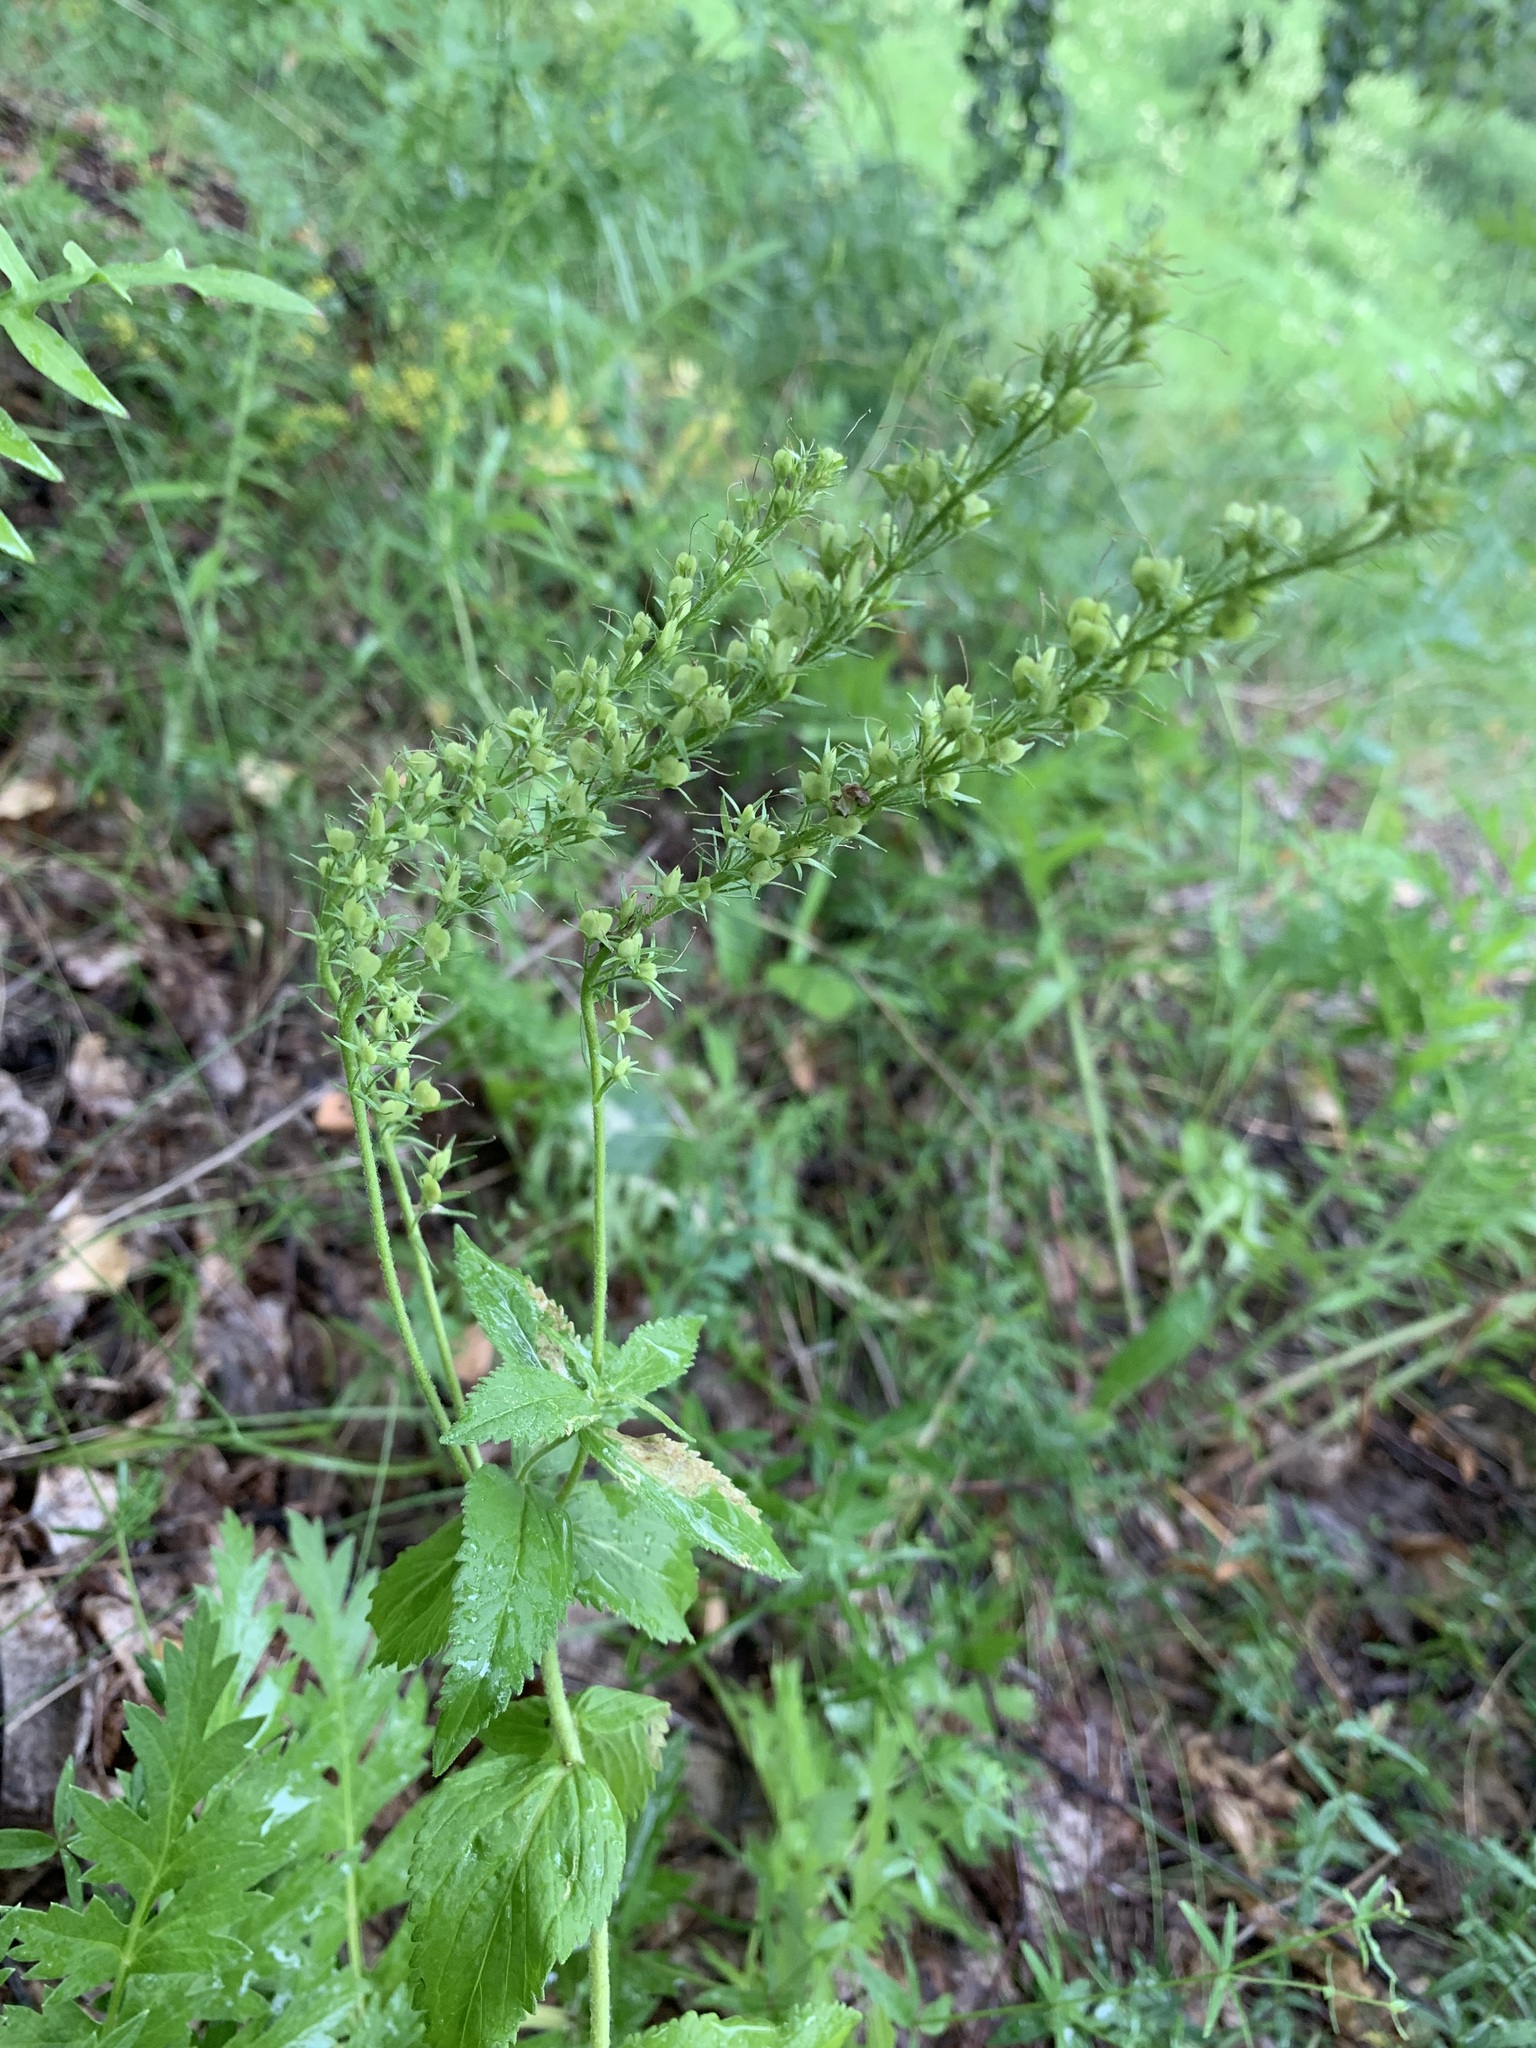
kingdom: Plantae
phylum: Tracheophyta
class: Magnoliopsida
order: Lamiales
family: Plantaginaceae
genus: Veronica
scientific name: Veronica teucrium
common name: Large speedwell
